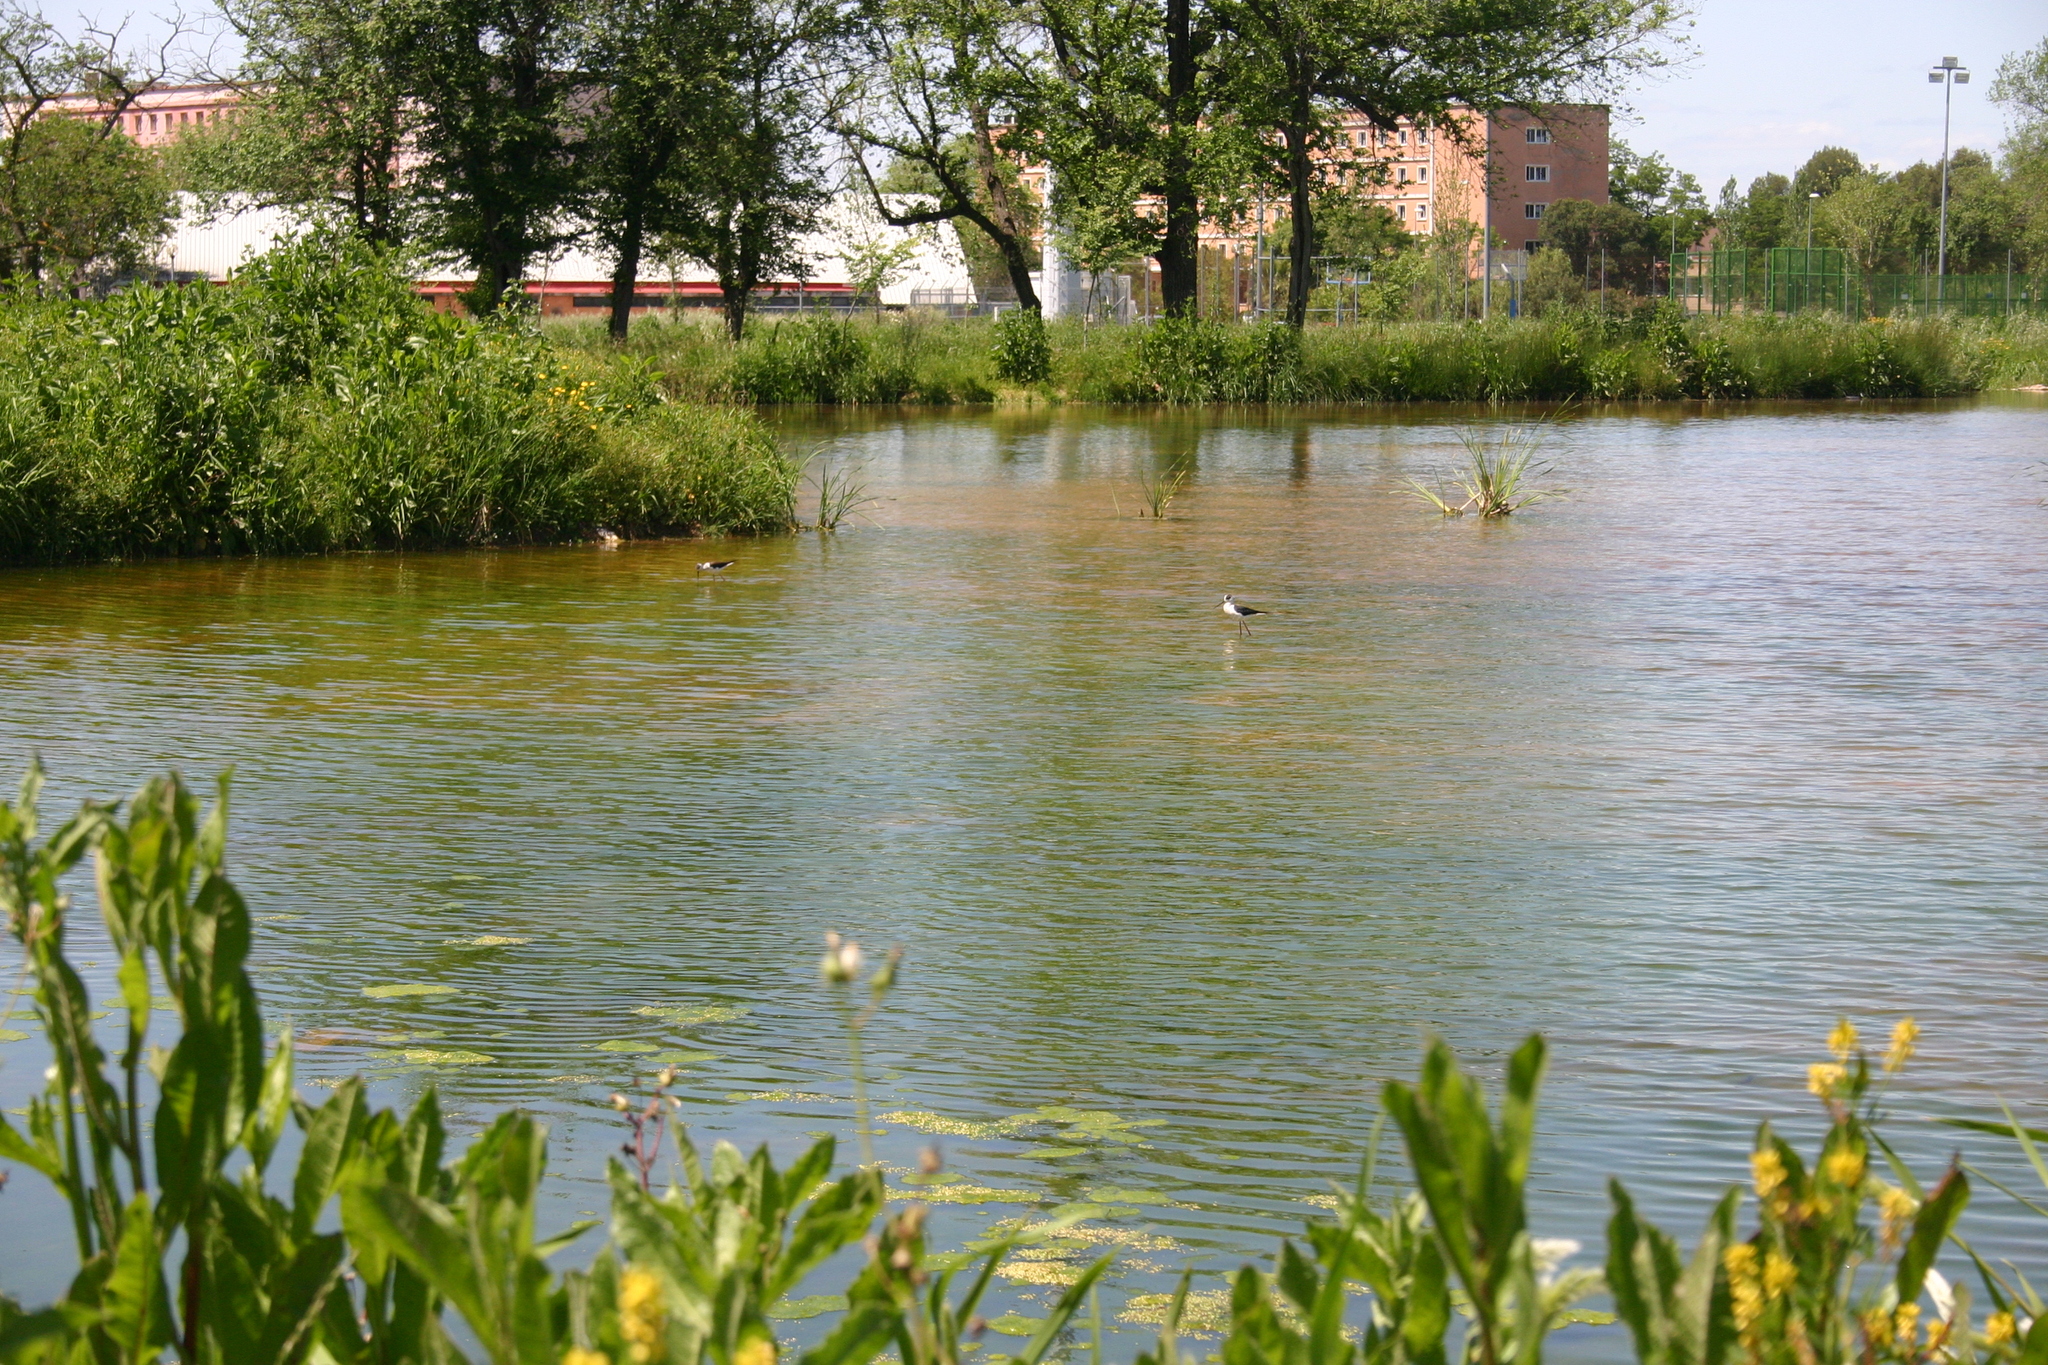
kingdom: Animalia
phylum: Chordata
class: Aves
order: Charadriiformes
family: Recurvirostridae
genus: Himantopus
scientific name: Himantopus himantopus
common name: Black-winged stilt
